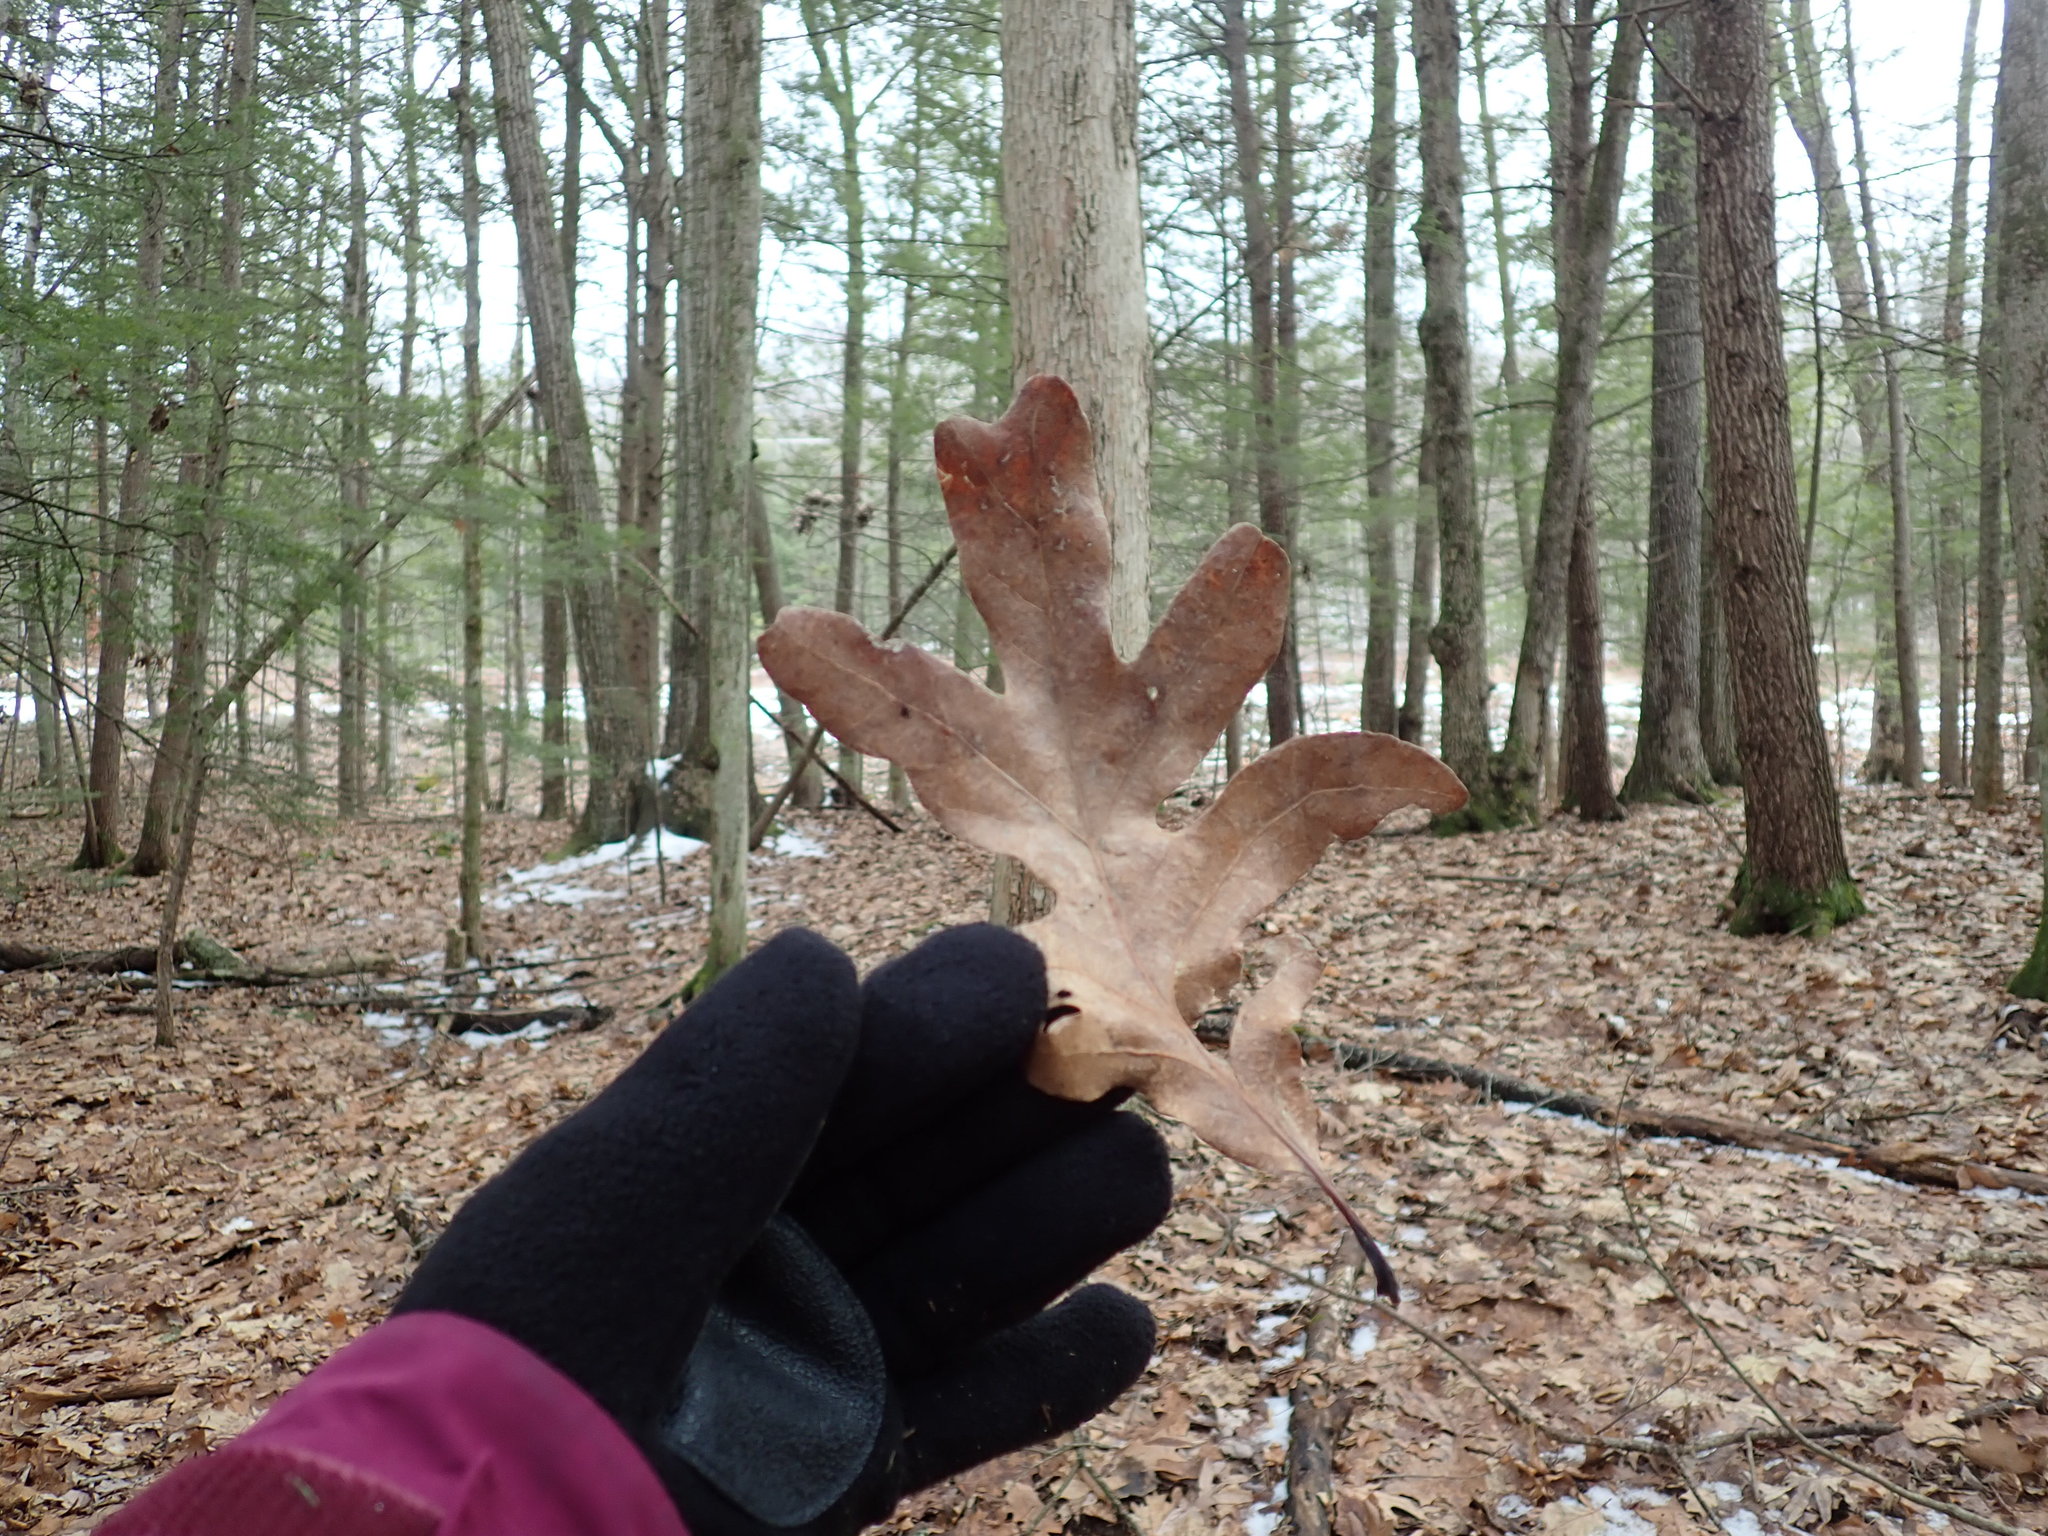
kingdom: Plantae
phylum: Tracheophyta
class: Magnoliopsida
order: Fagales
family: Fagaceae
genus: Quercus
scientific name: Quercus alba
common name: White oak
